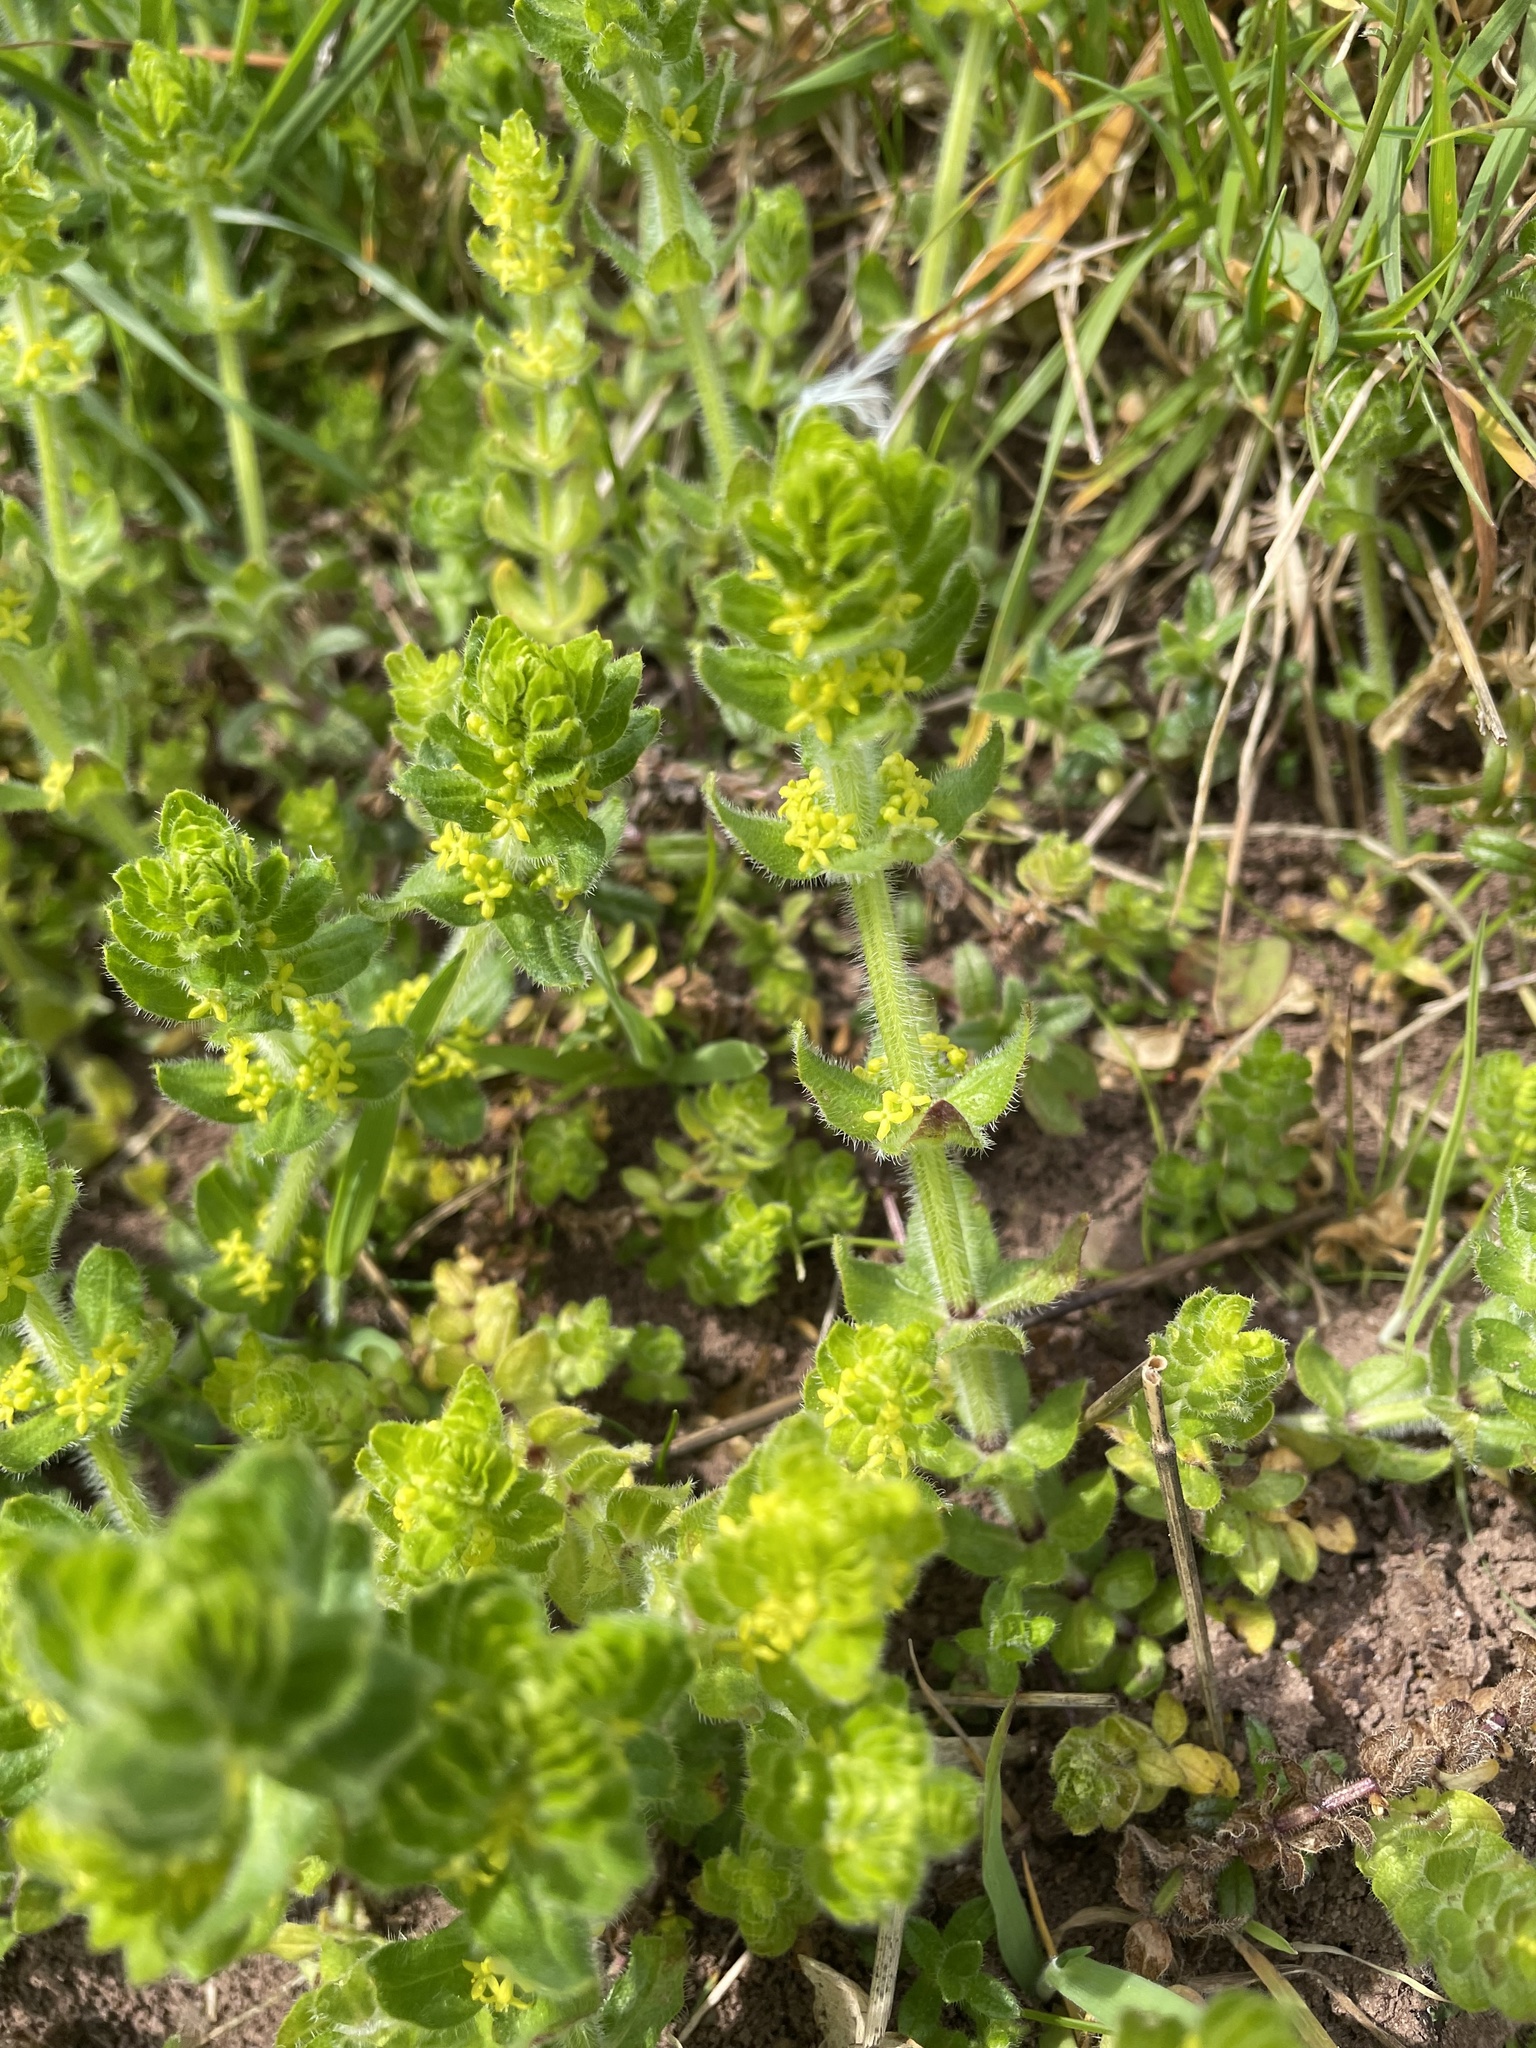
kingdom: Plantae
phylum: Tracheophyta
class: Magnoliopsida
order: Gentianales
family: Rubiaceae
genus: Cruciata
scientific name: Cruciata laevipes
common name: Crosswort
